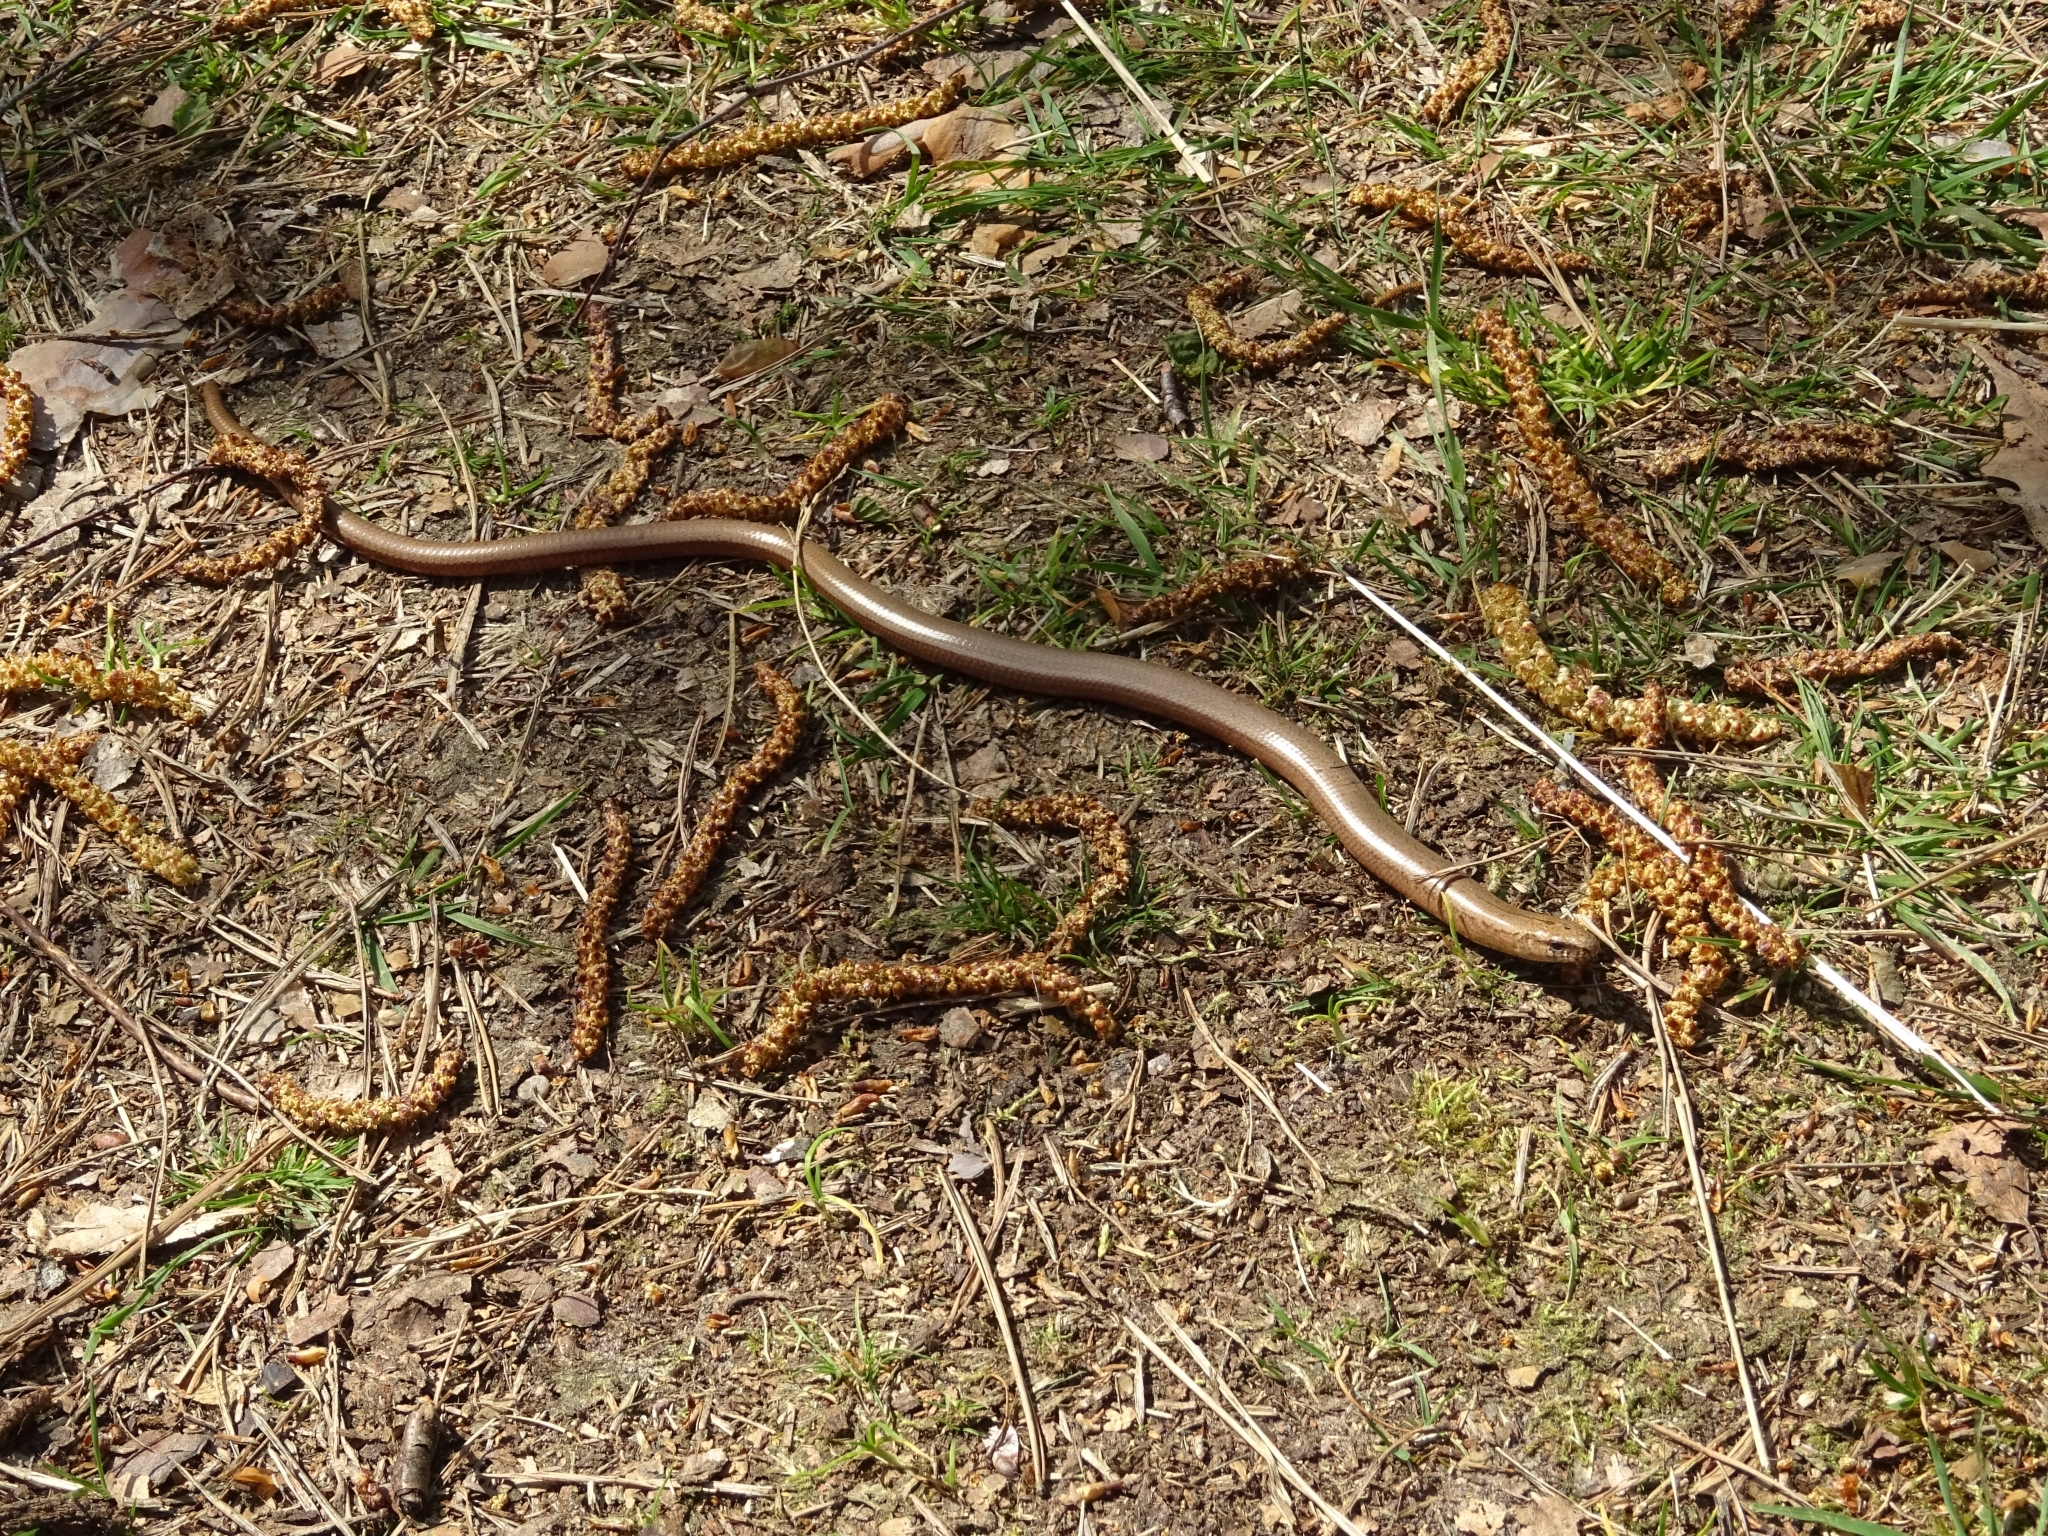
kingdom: Animalia
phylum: Chordata
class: Squamata
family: Anguidae
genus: Anguis
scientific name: Anguis fragilis
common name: Slow worm
